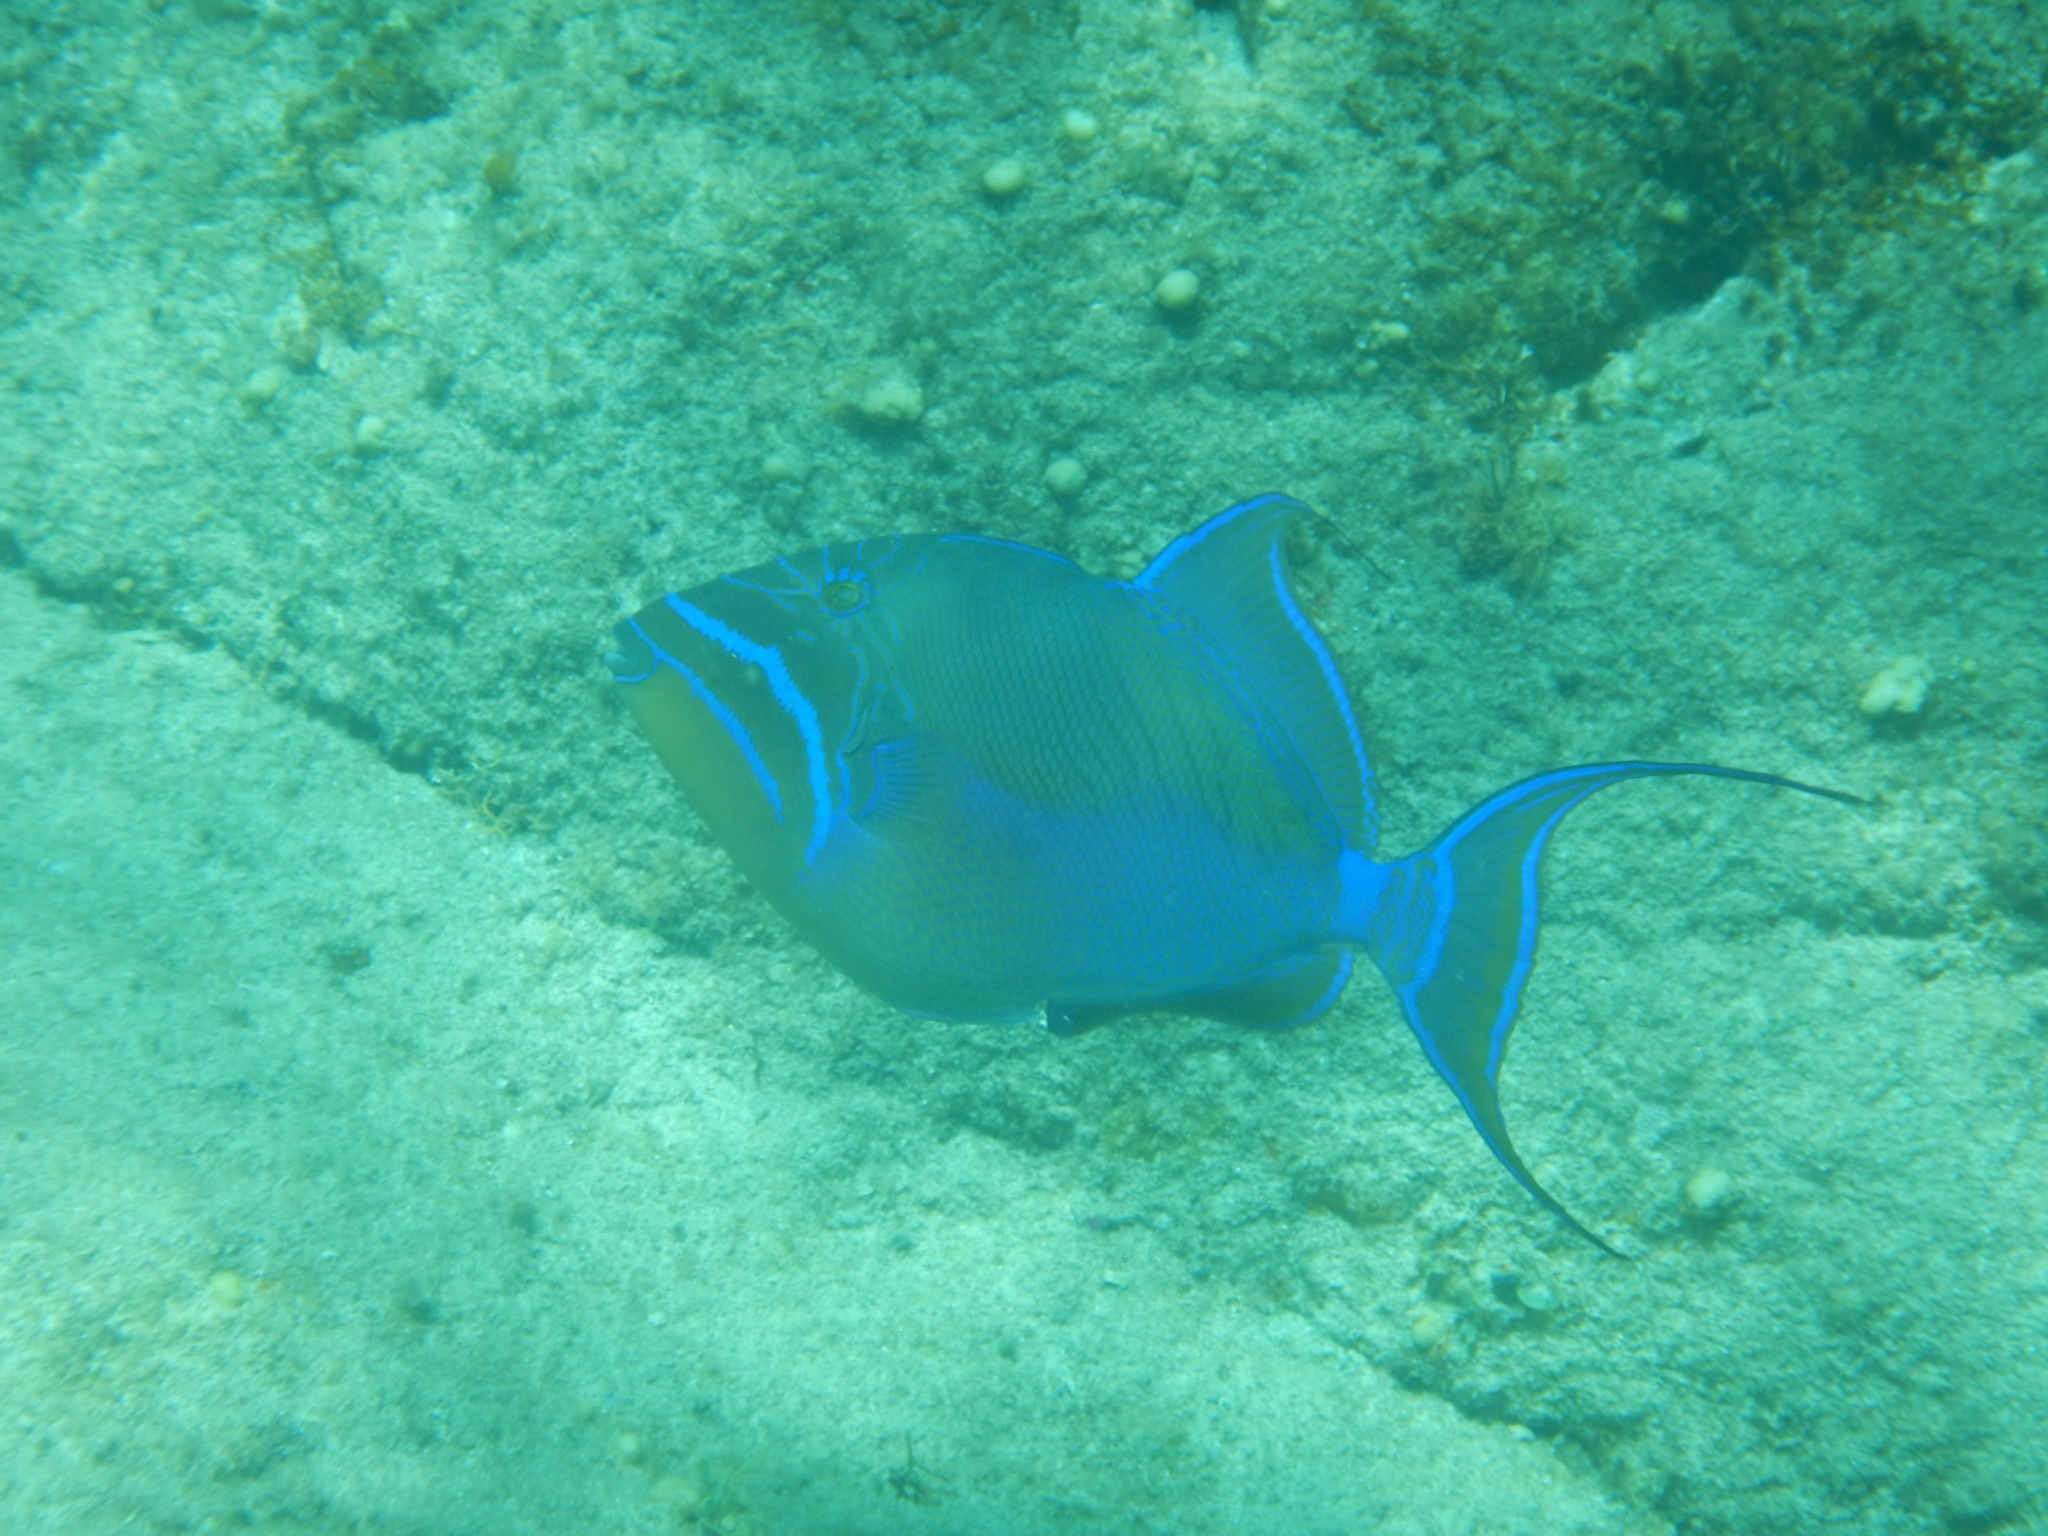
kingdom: Animalia
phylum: Chordata
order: Tetraodontiformes
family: Balistidae
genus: Balistes
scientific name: Balistes vetula
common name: Queen triggerfish
